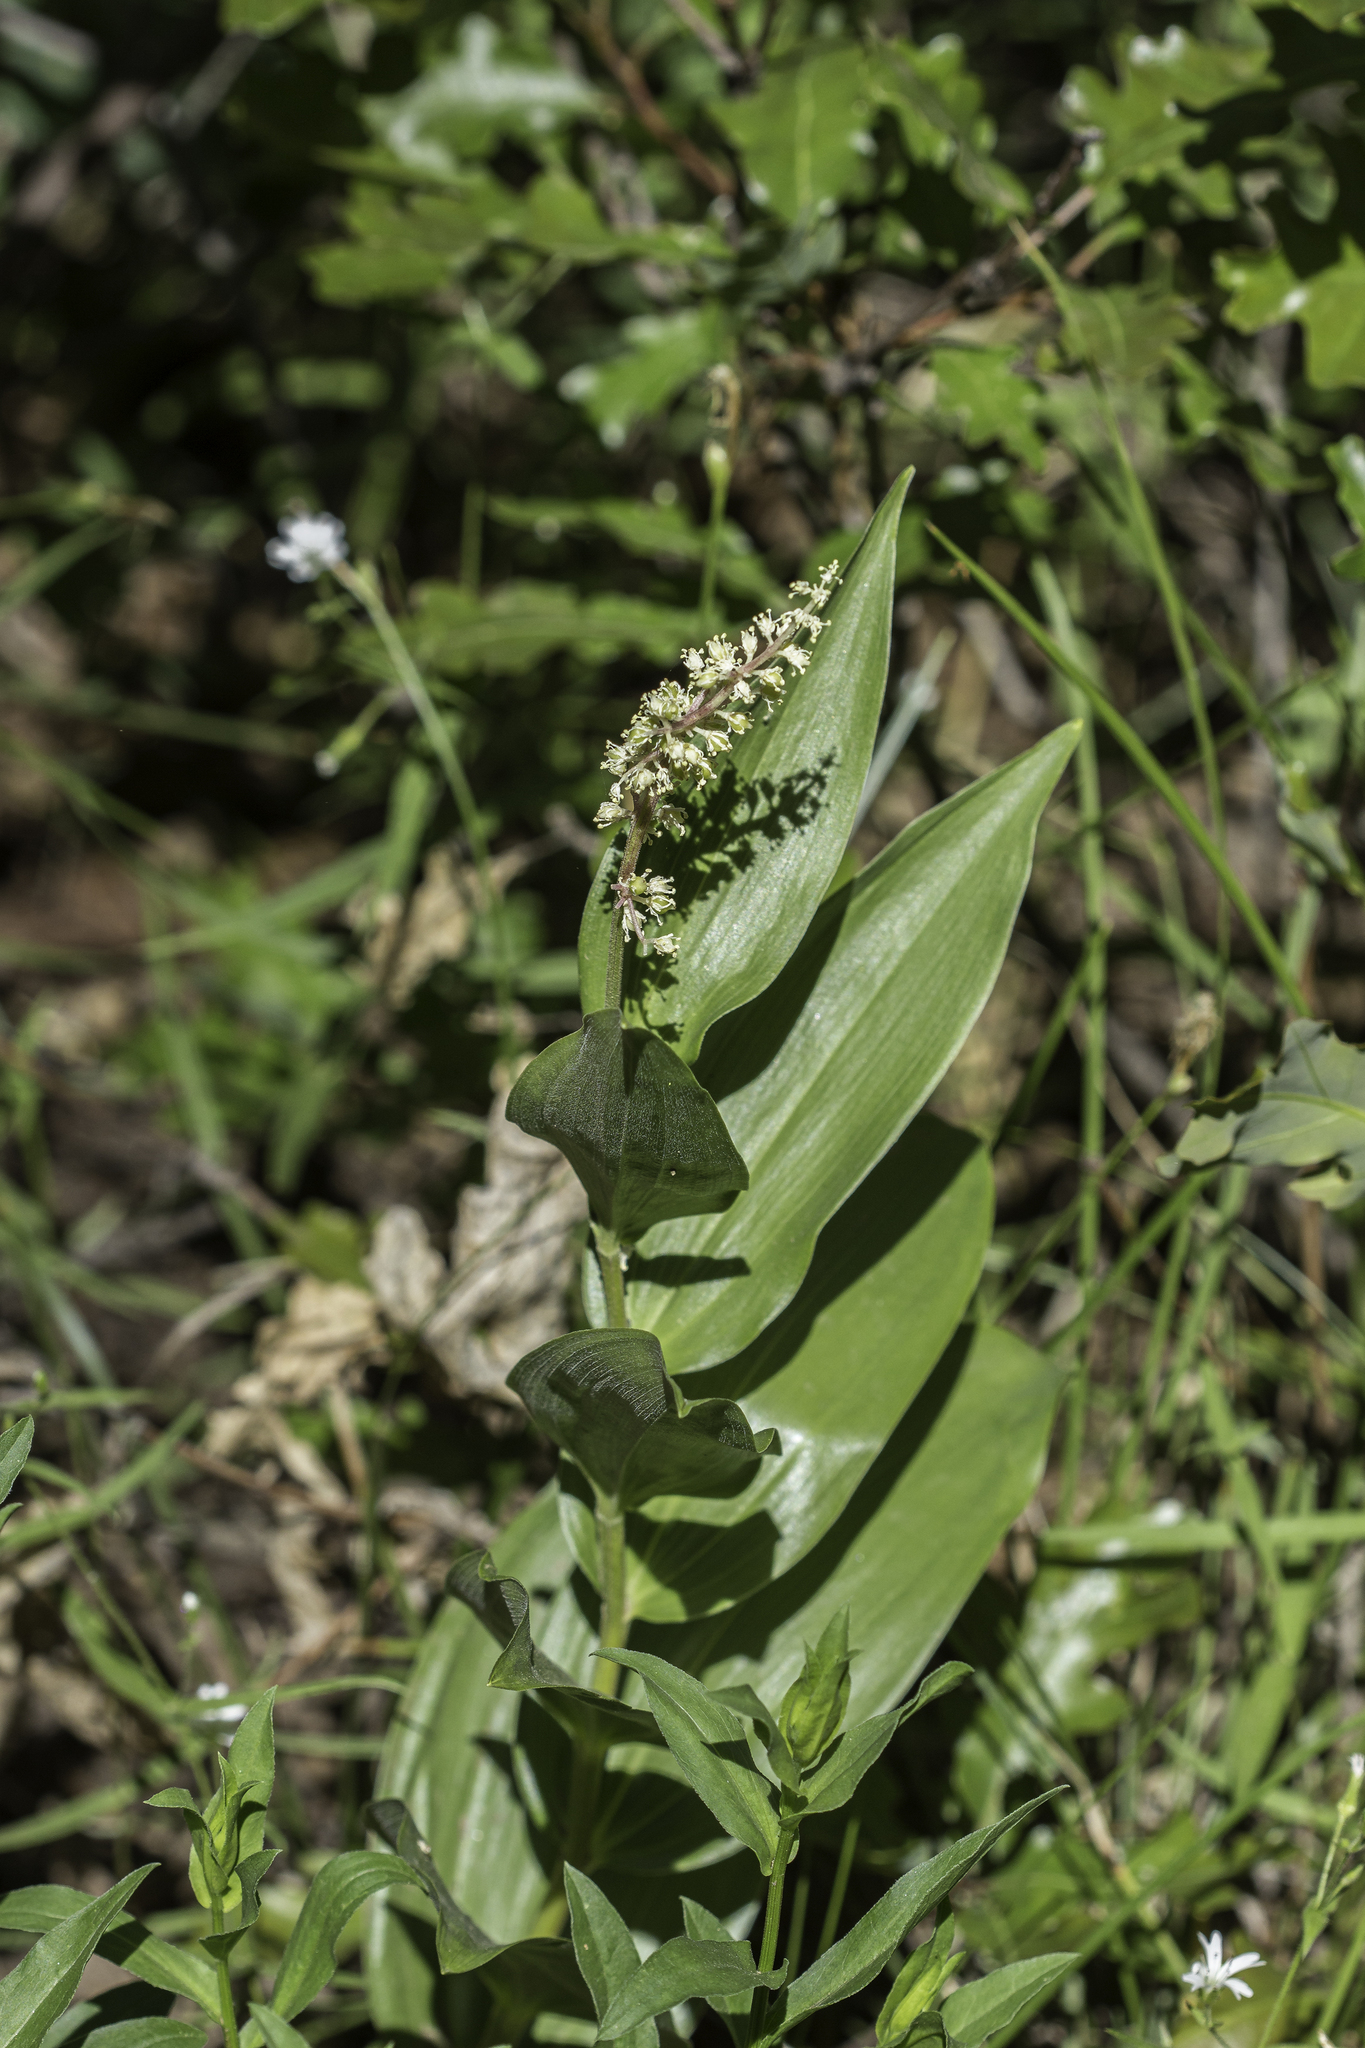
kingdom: Plantae
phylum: Tracheophyta
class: Liliopsida
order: Asparagales
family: Asparagaceae
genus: Maianthemum
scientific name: Maianthemum racemosum
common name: False spikenard
